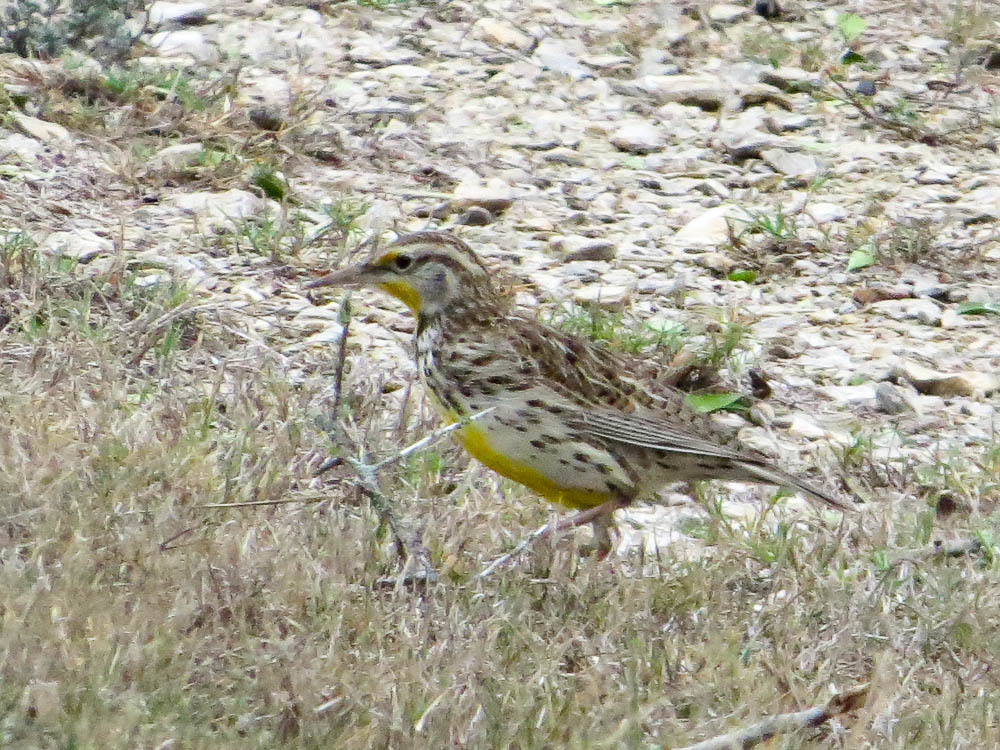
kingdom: Animalia
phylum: Chordata
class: Aves
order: Passeriformes
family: Icteridae
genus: Sturnella
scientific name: Sturnella neglecta
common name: Western meadowlark
